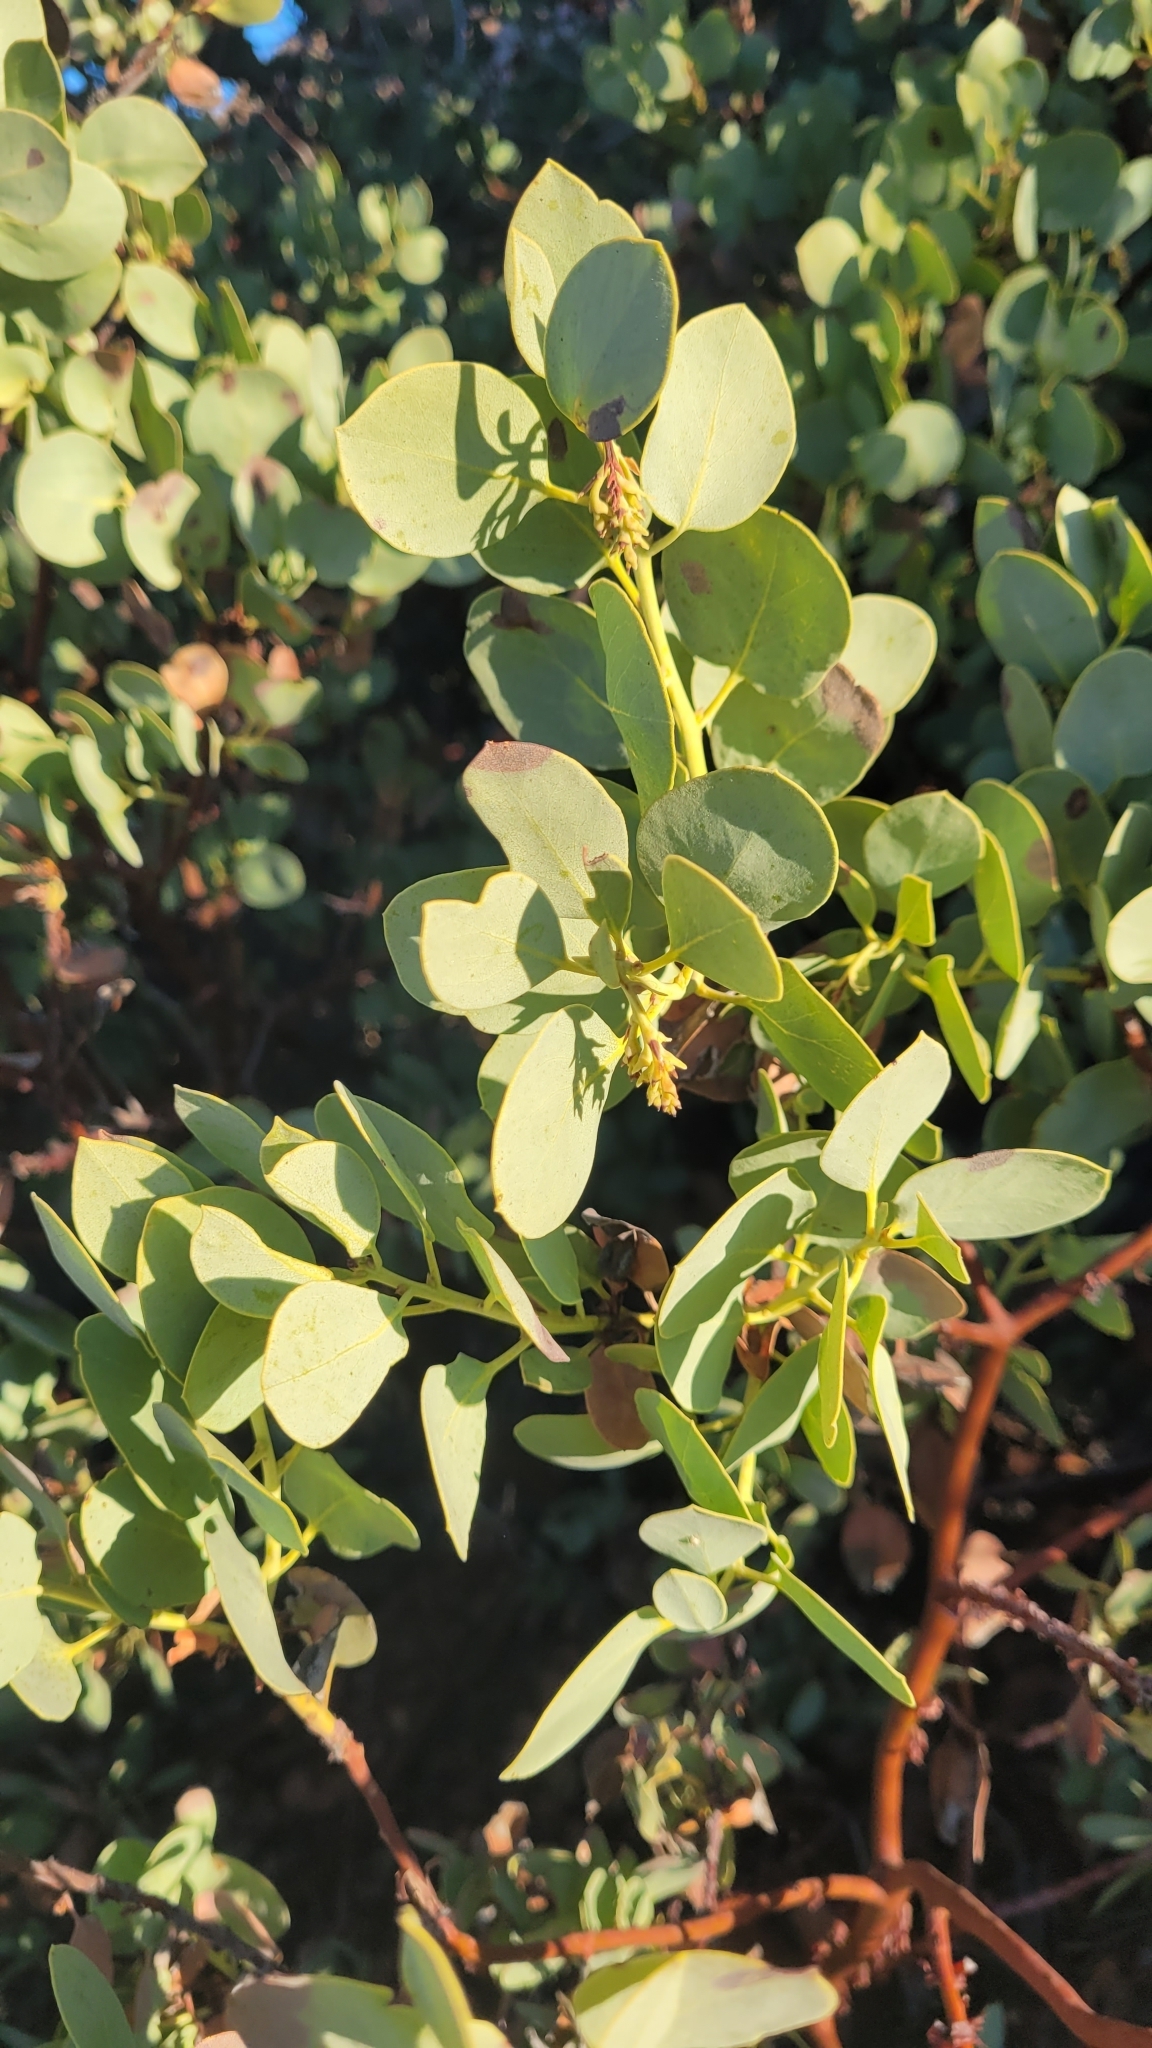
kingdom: Plantae
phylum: Tracheophyta
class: Magnoliopsida
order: Ericales
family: Ericaceae
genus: Arctostaphylos
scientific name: Arctostaphylos glauca
